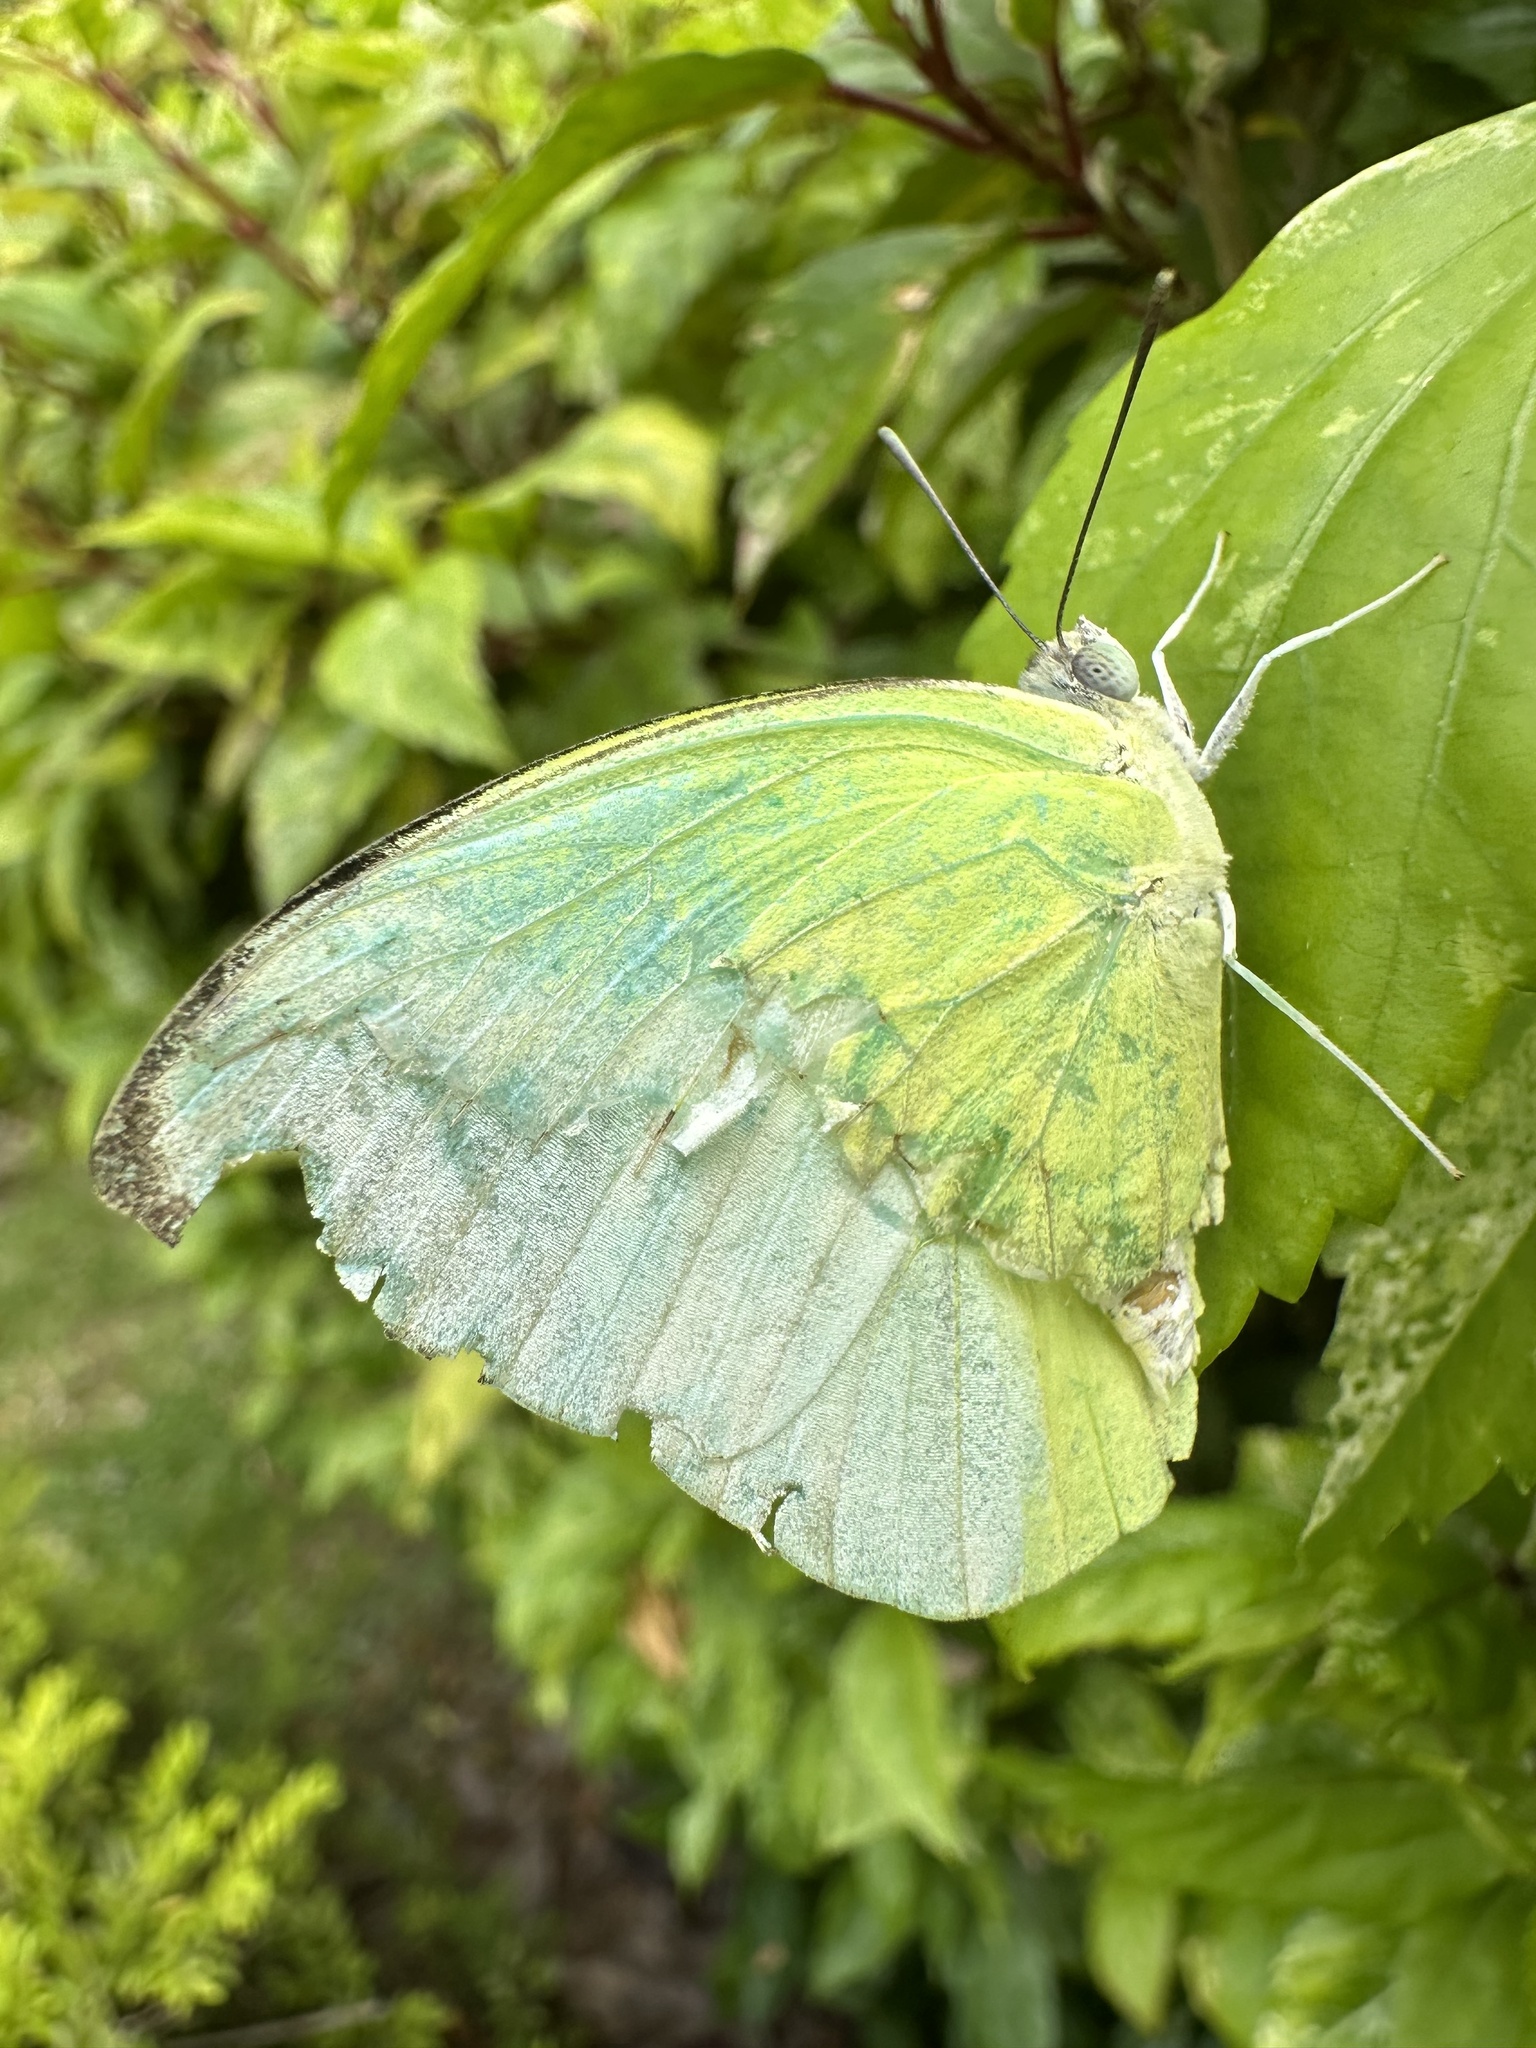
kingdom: Animalia
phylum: Arthropoda
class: Insecta
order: Lepidoptera
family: Pieridae
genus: Catopsilia
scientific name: Catopsilia pomona
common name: Common emigrant
